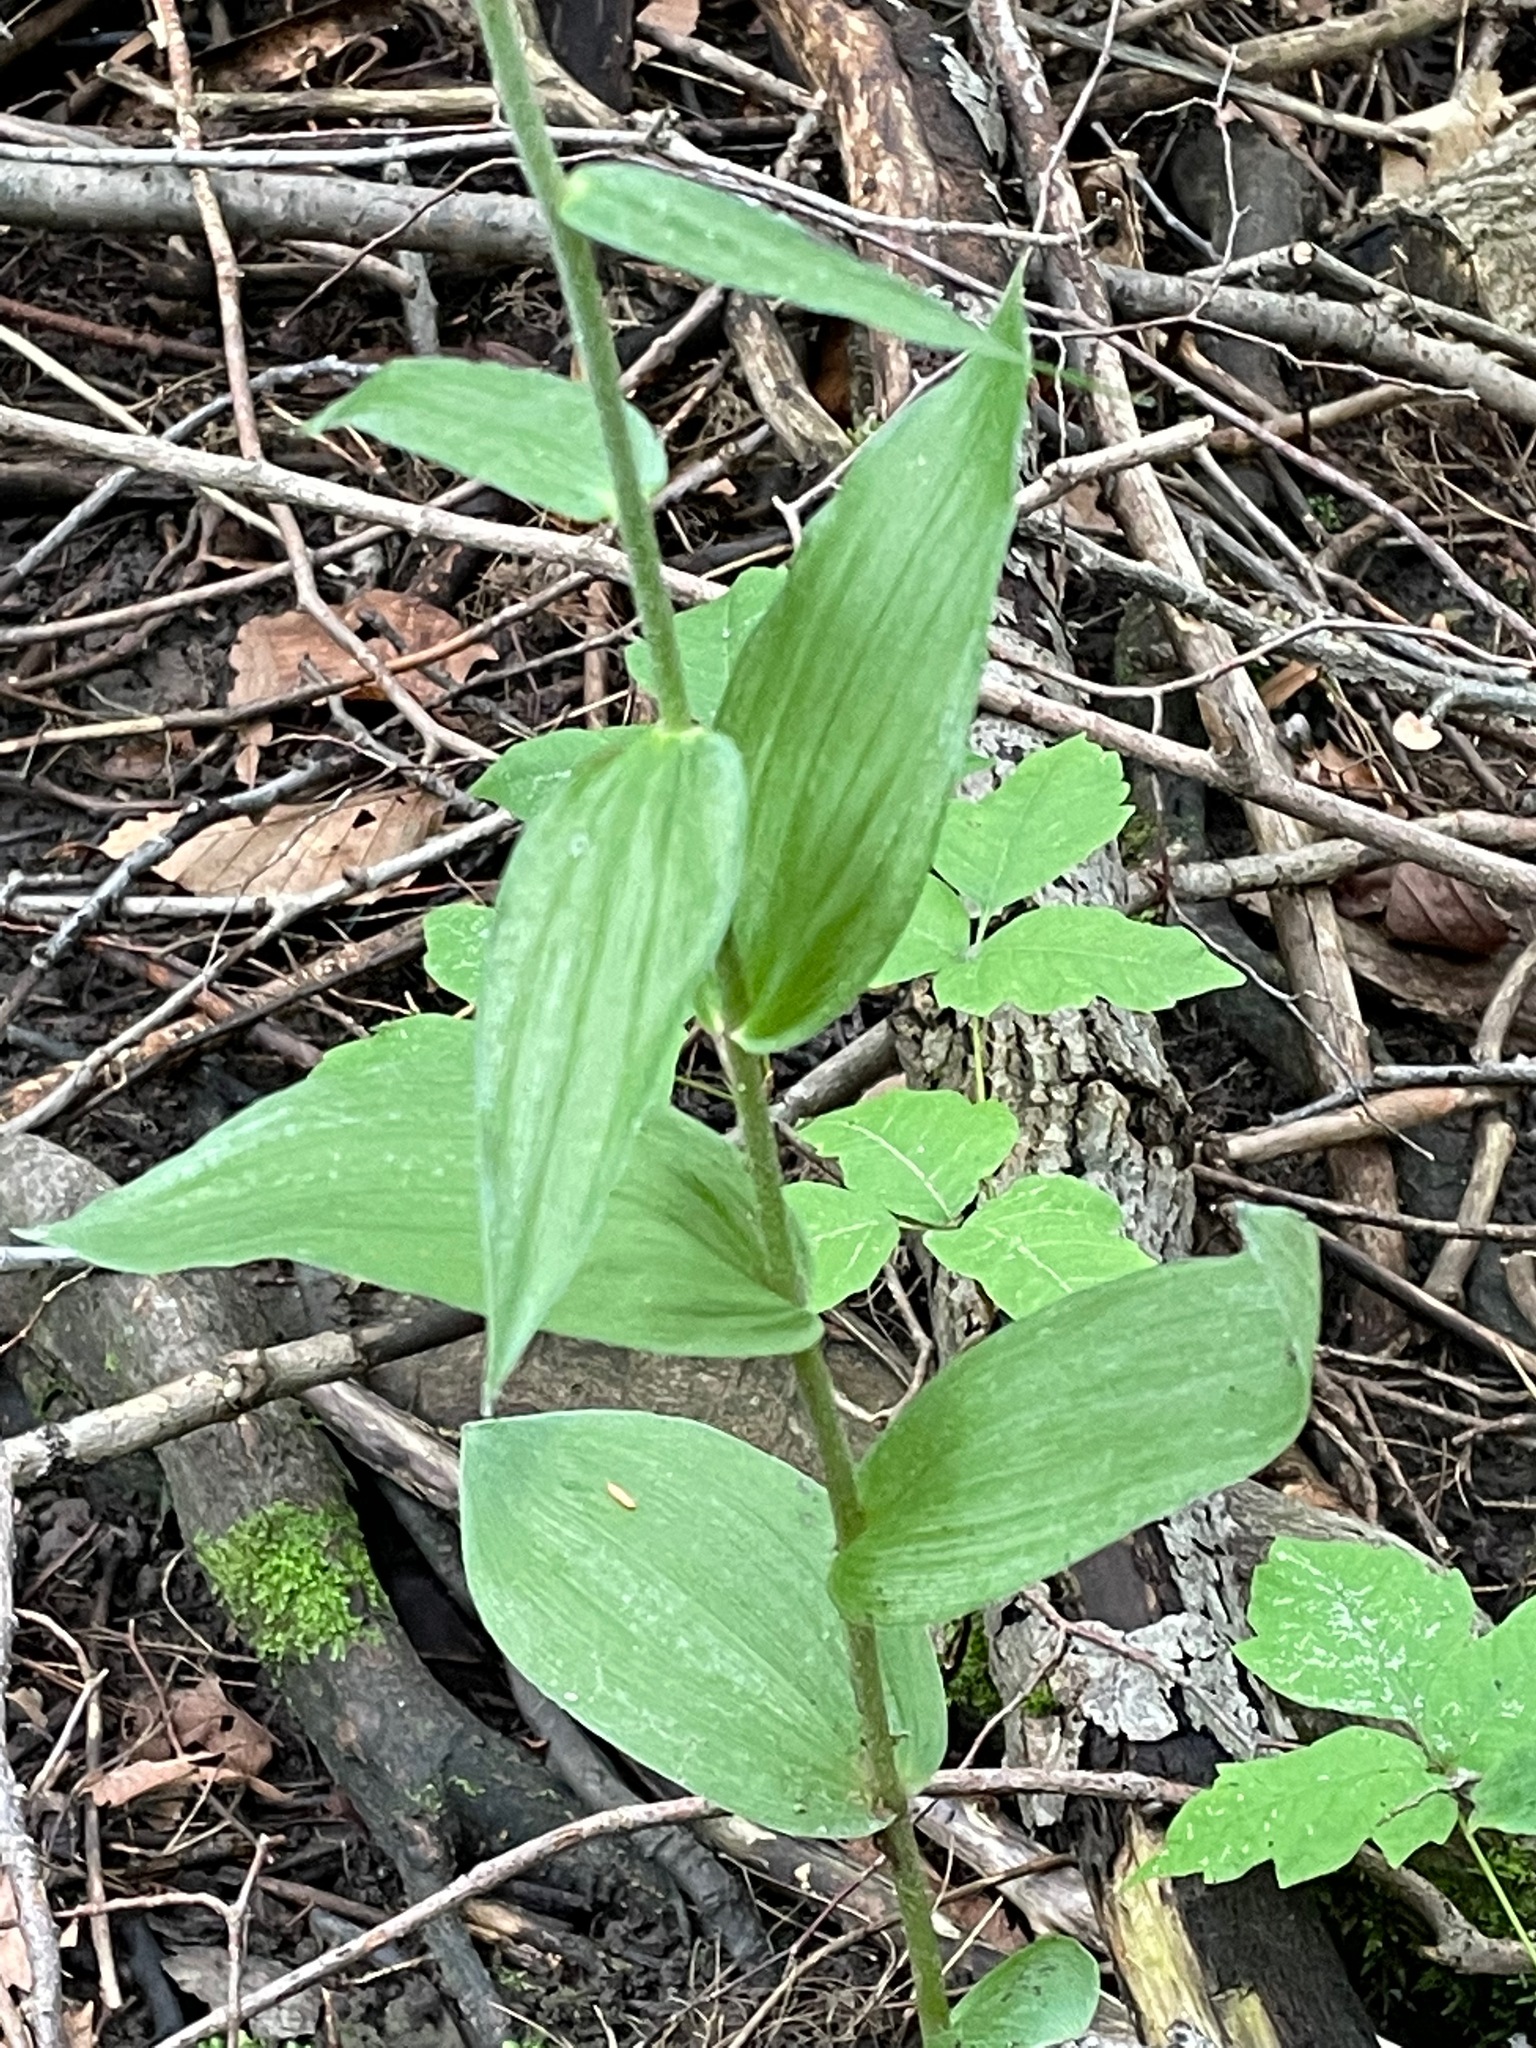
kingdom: Plantae
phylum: Tracheophyta
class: Liliopsida
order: Asparagales
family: Orchidaceae
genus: Epipactis
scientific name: Epipactis helleborine
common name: Broad-leaved helleborine
